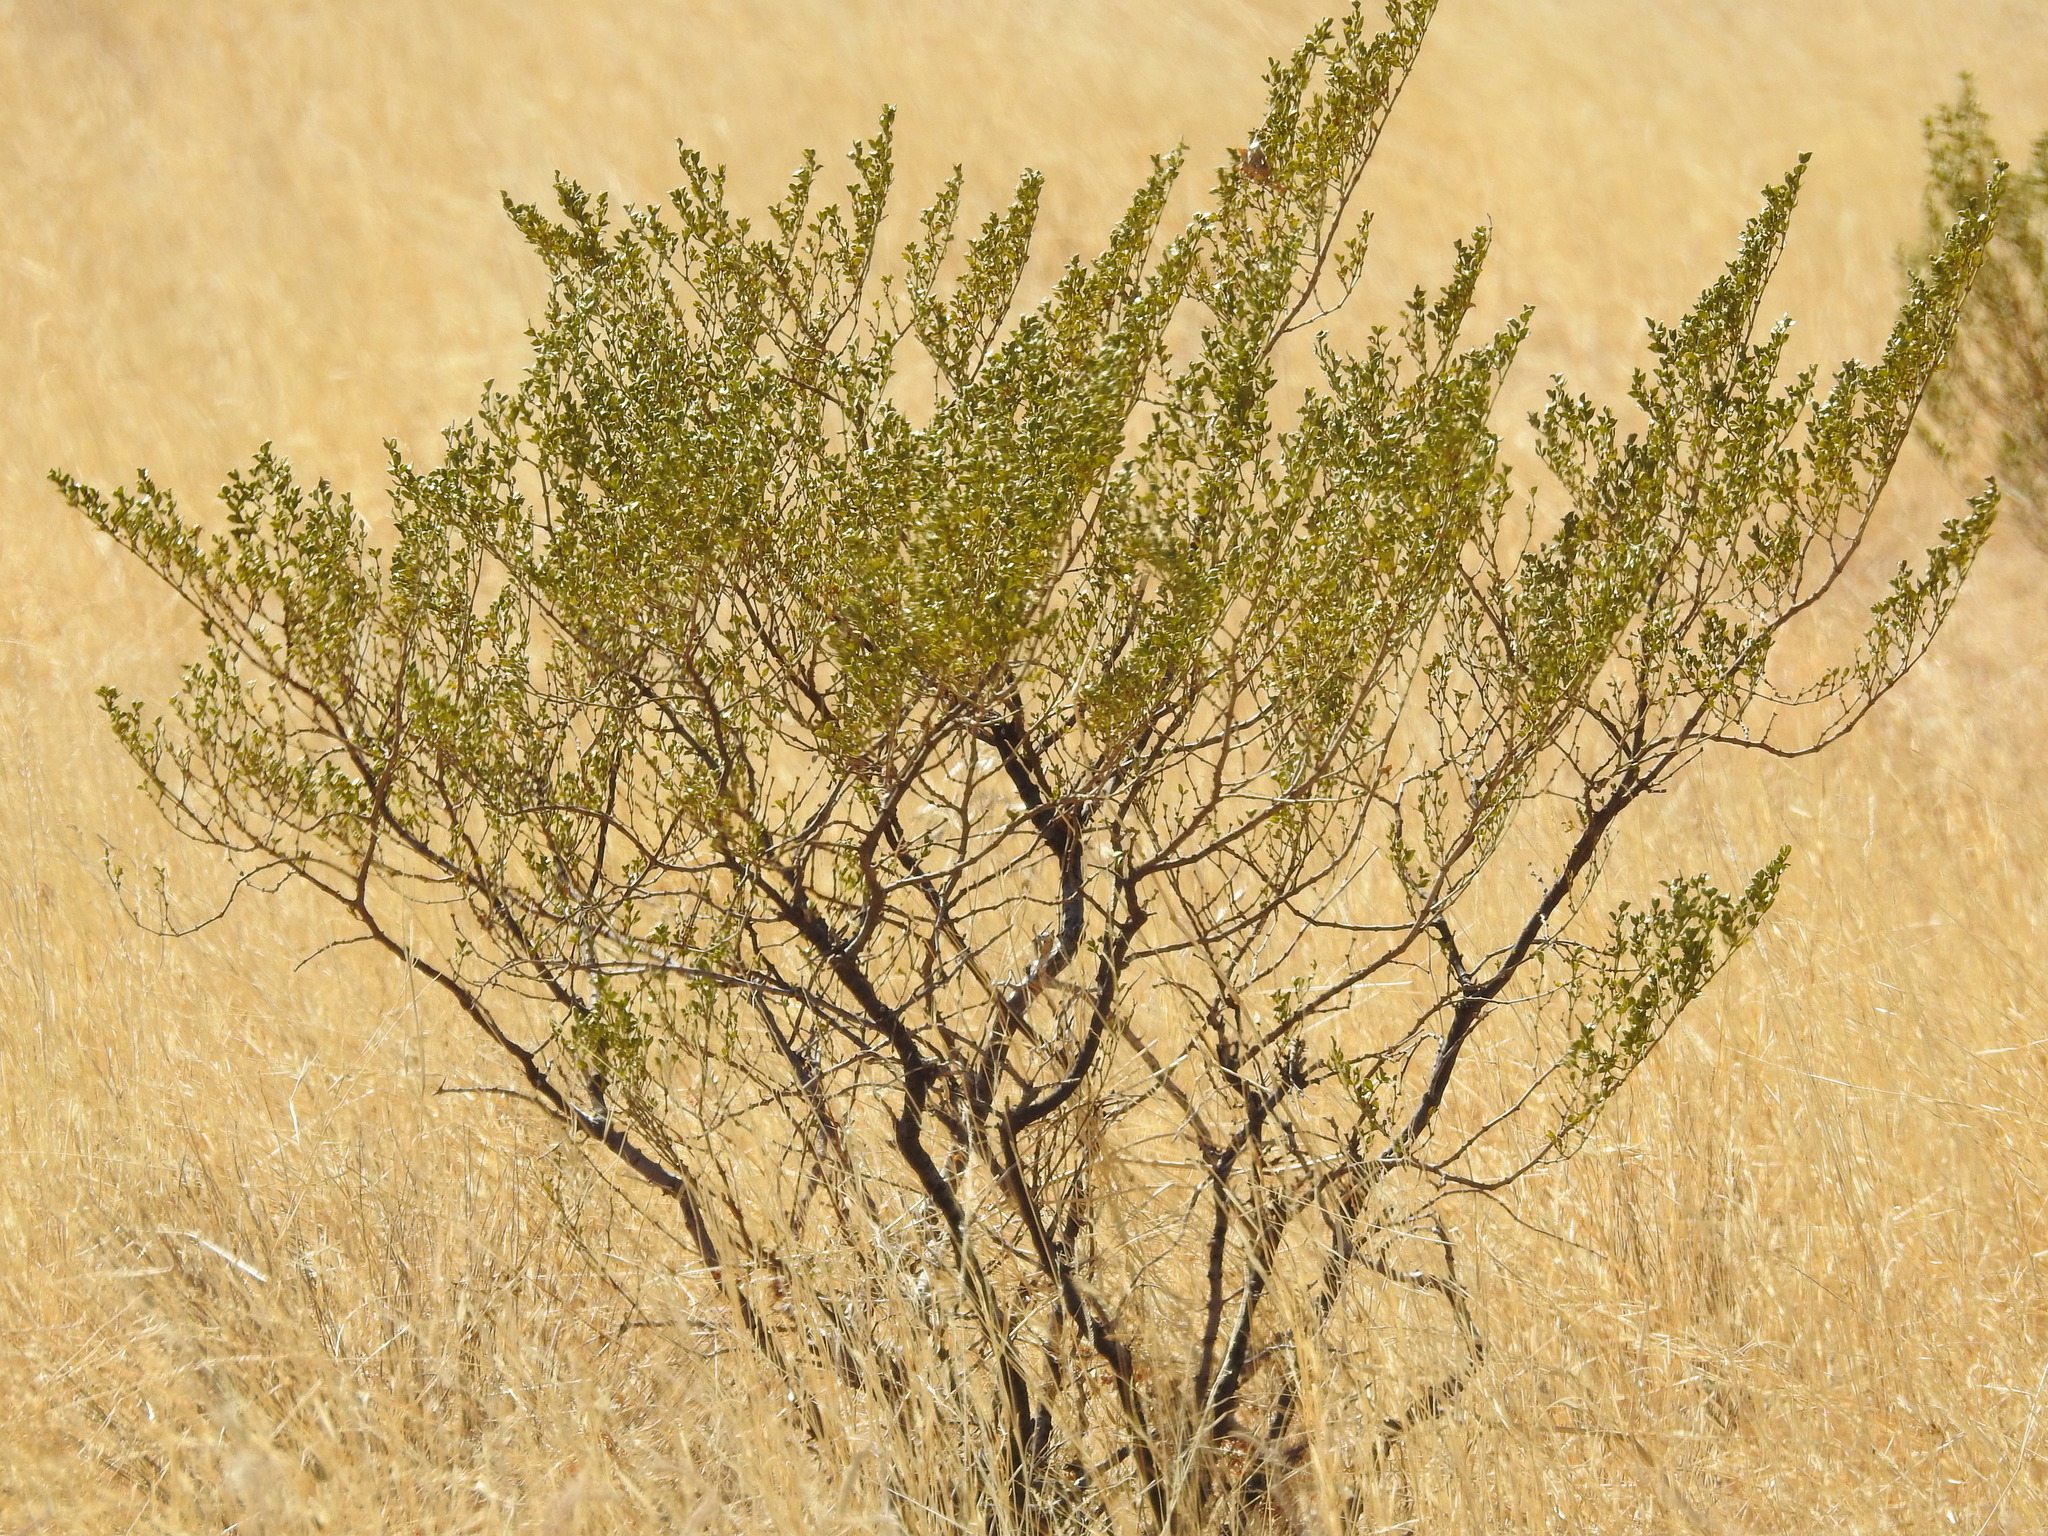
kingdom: Plantae
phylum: Tracheophyta
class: Magnoliopsida
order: Zygophyllales
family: Zygophyllaceae
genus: Larrea
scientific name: Larrea tridentata
